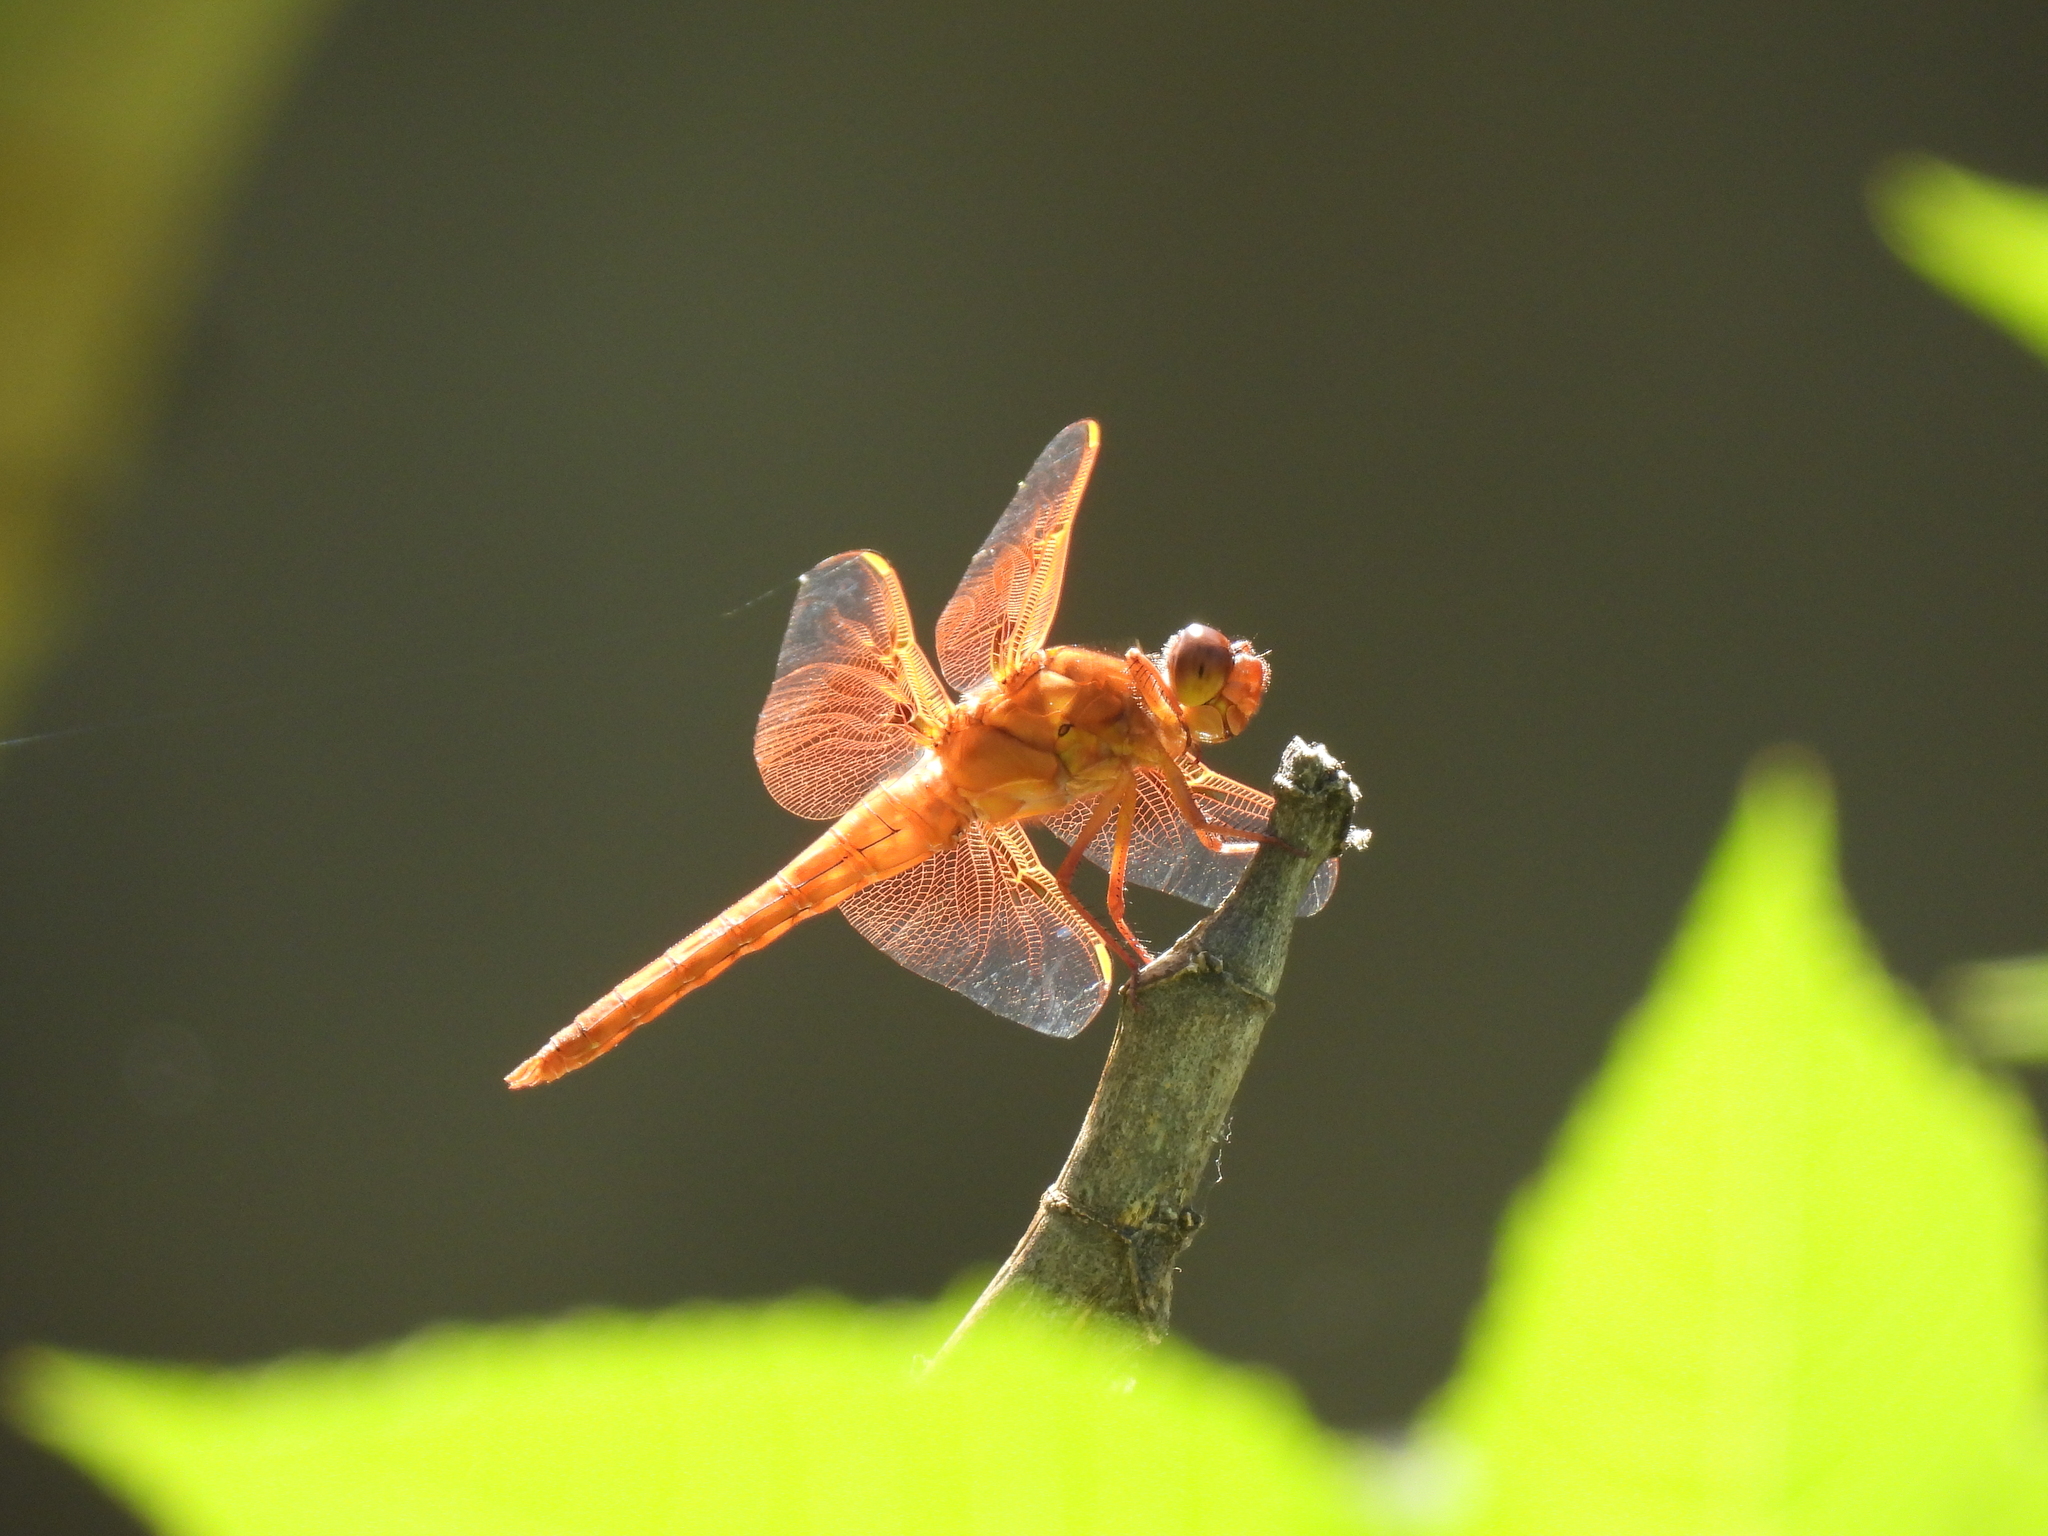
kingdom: Animalia
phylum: Arthropoda
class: Insecta
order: Odonata
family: Libellulidae
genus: Libellula
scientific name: Libellula saturata
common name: Flame skimmer
